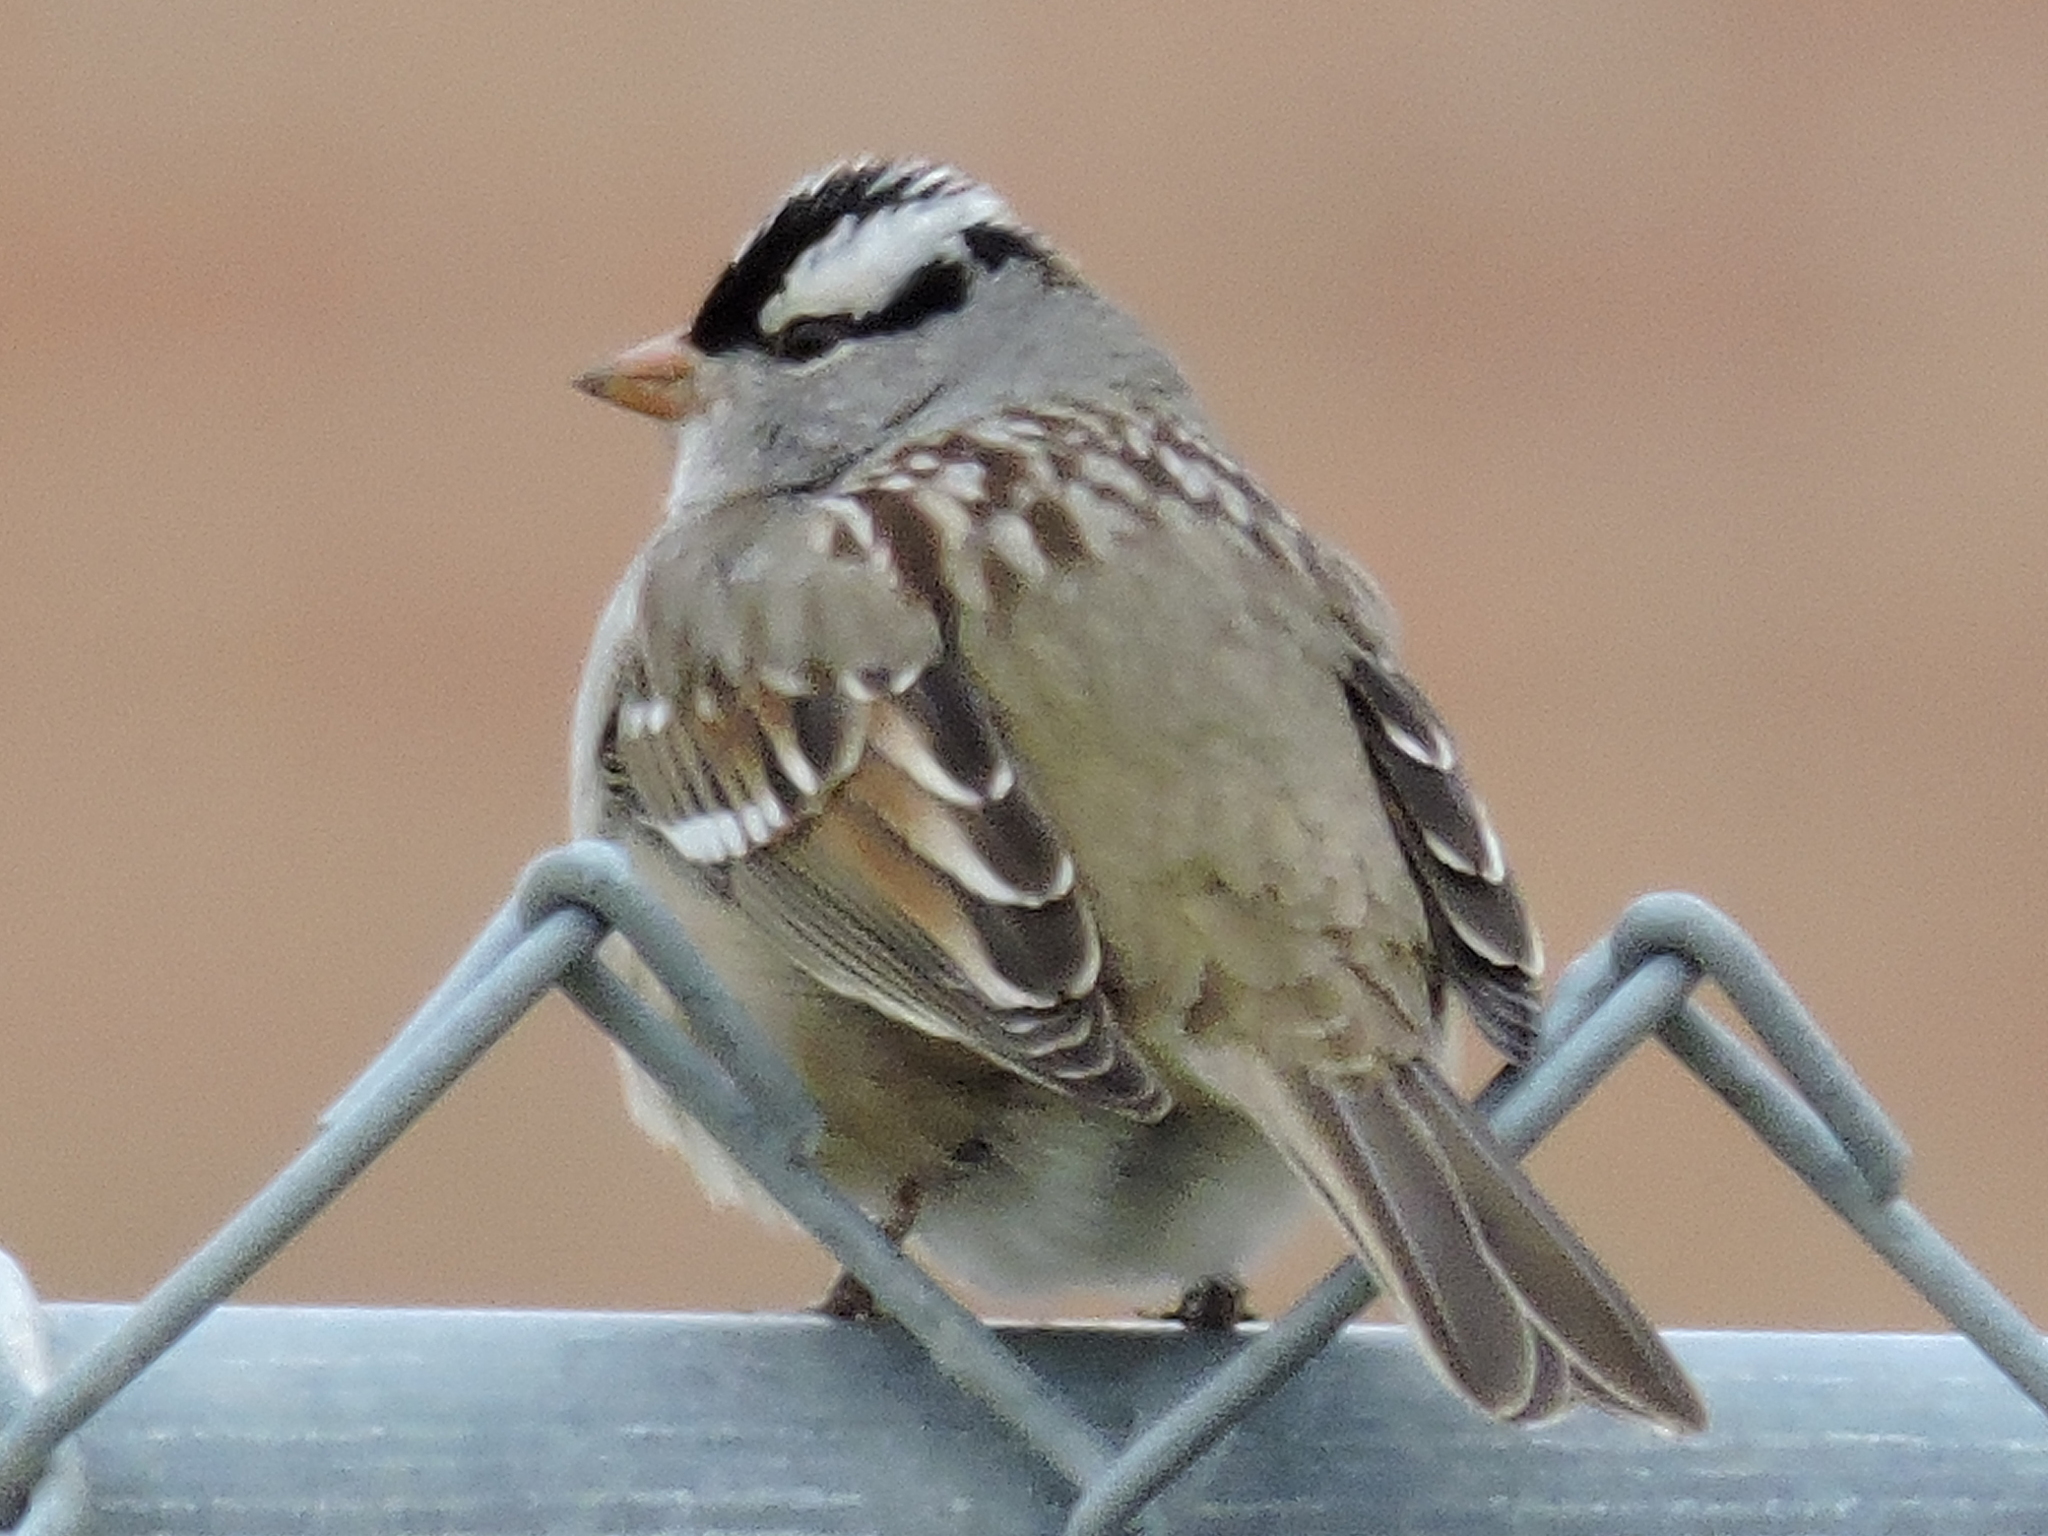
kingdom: Animalia
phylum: Chordata
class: Aves
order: Passeriformes
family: Passerellidae
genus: Zonotrichia
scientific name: Zonotrichia leucophrys
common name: White-crowned sparrow
